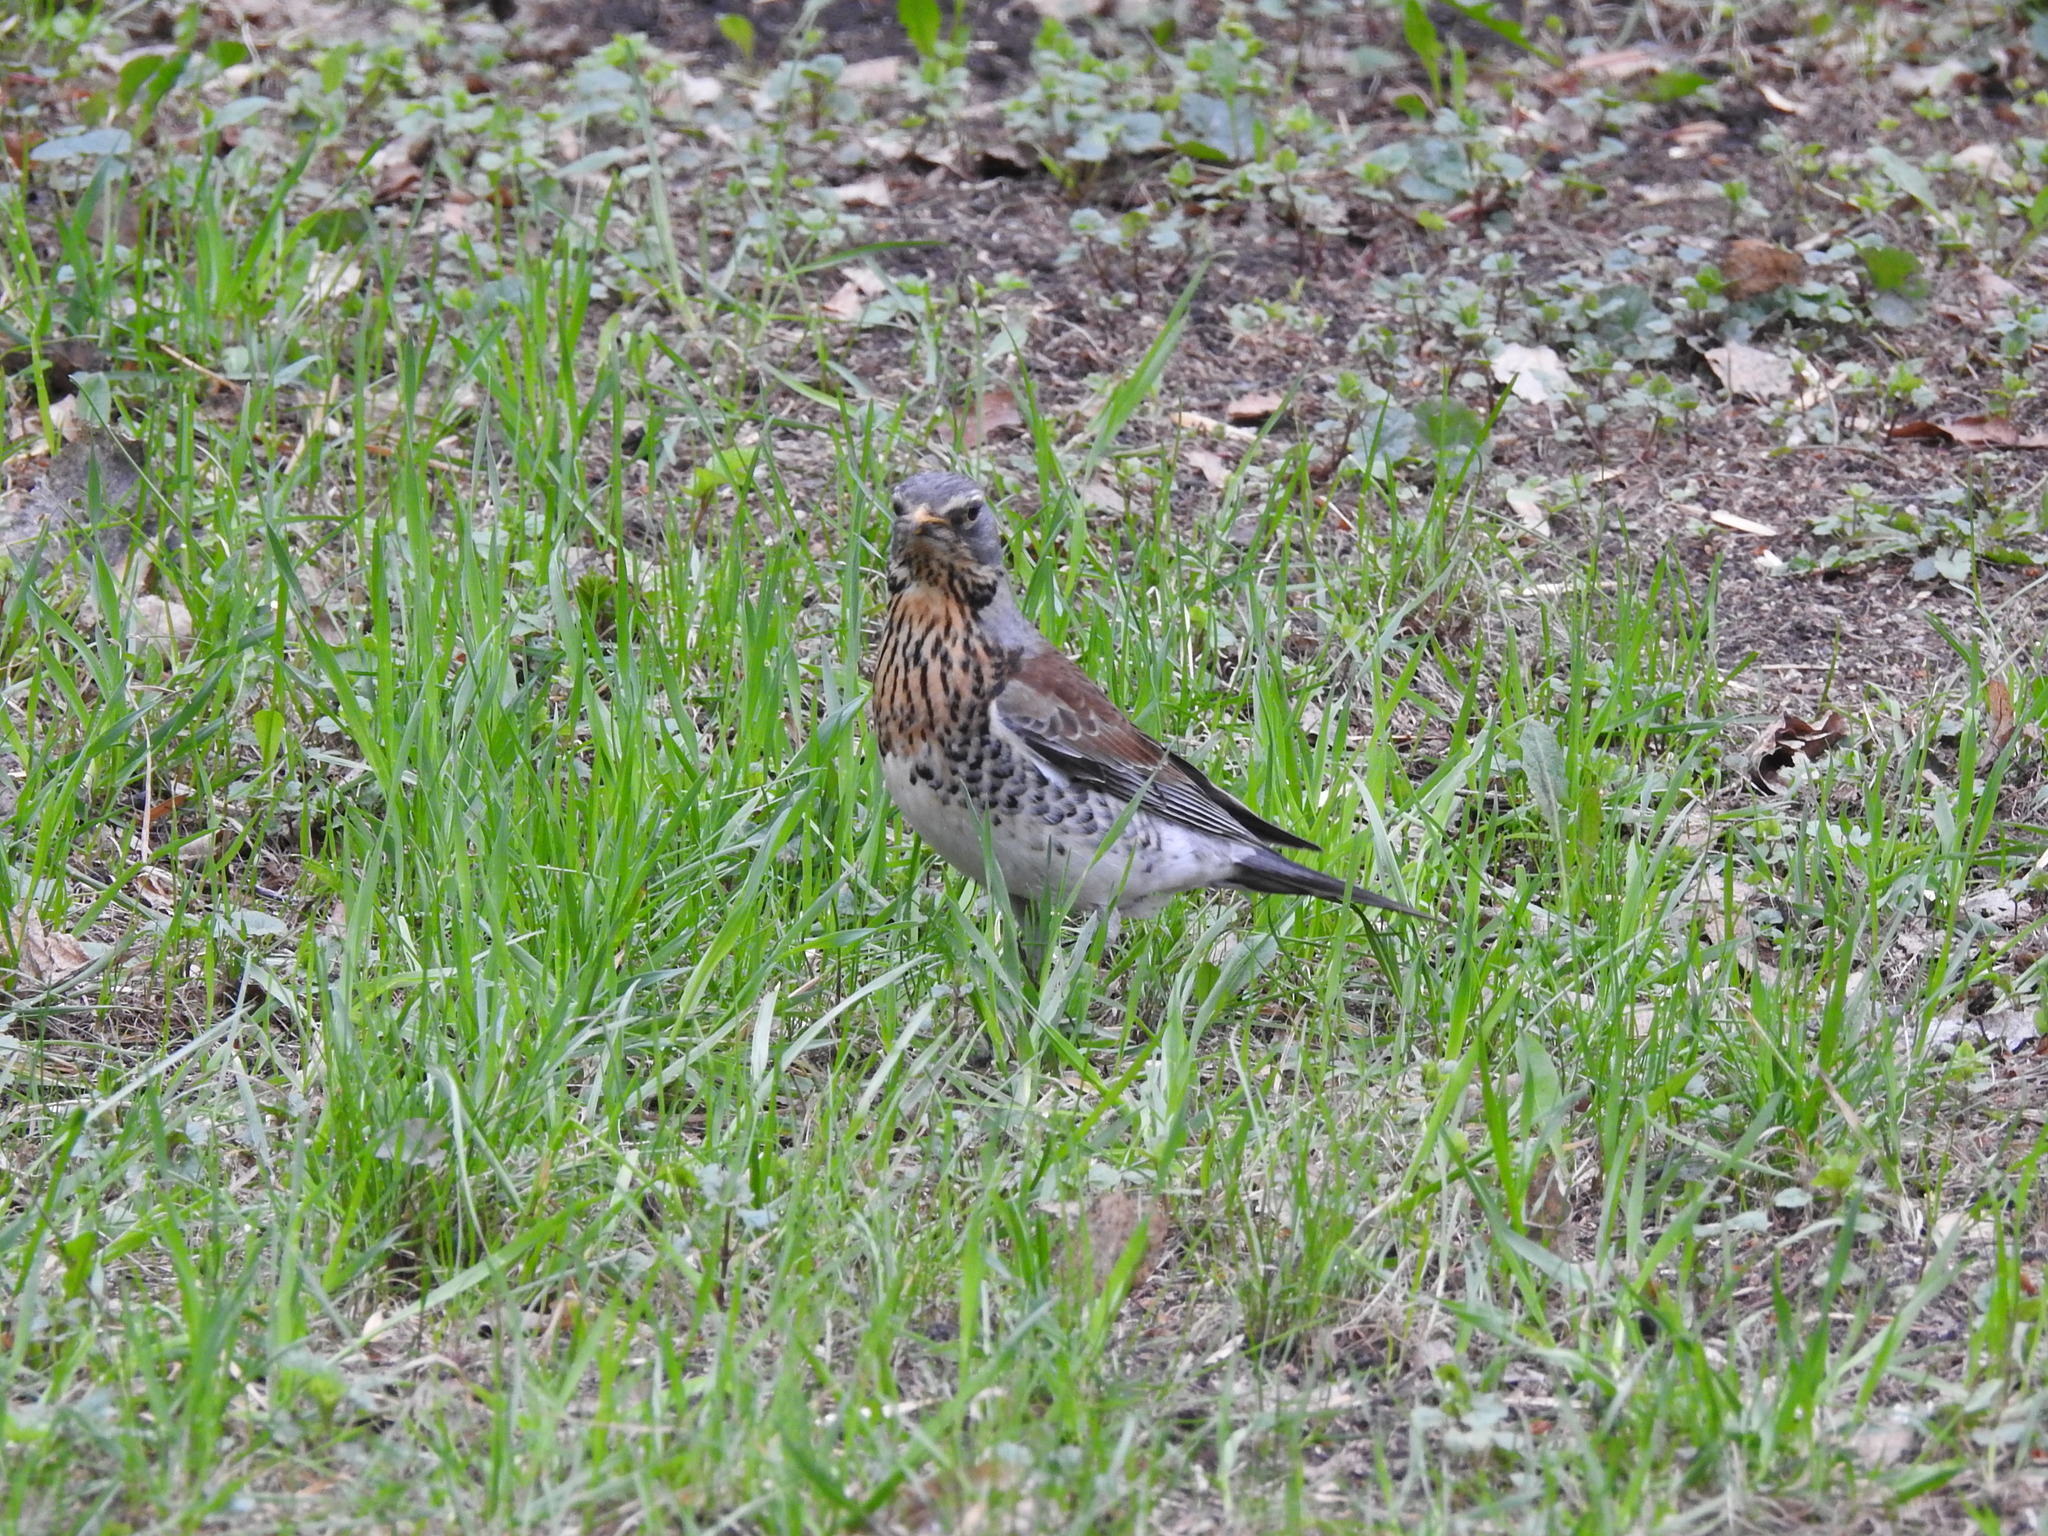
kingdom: Animalia
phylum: Chordata
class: Aves
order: Passeriformes
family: Turdidae
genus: Turdus
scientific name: Turdus pilaris
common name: Fieldfare
